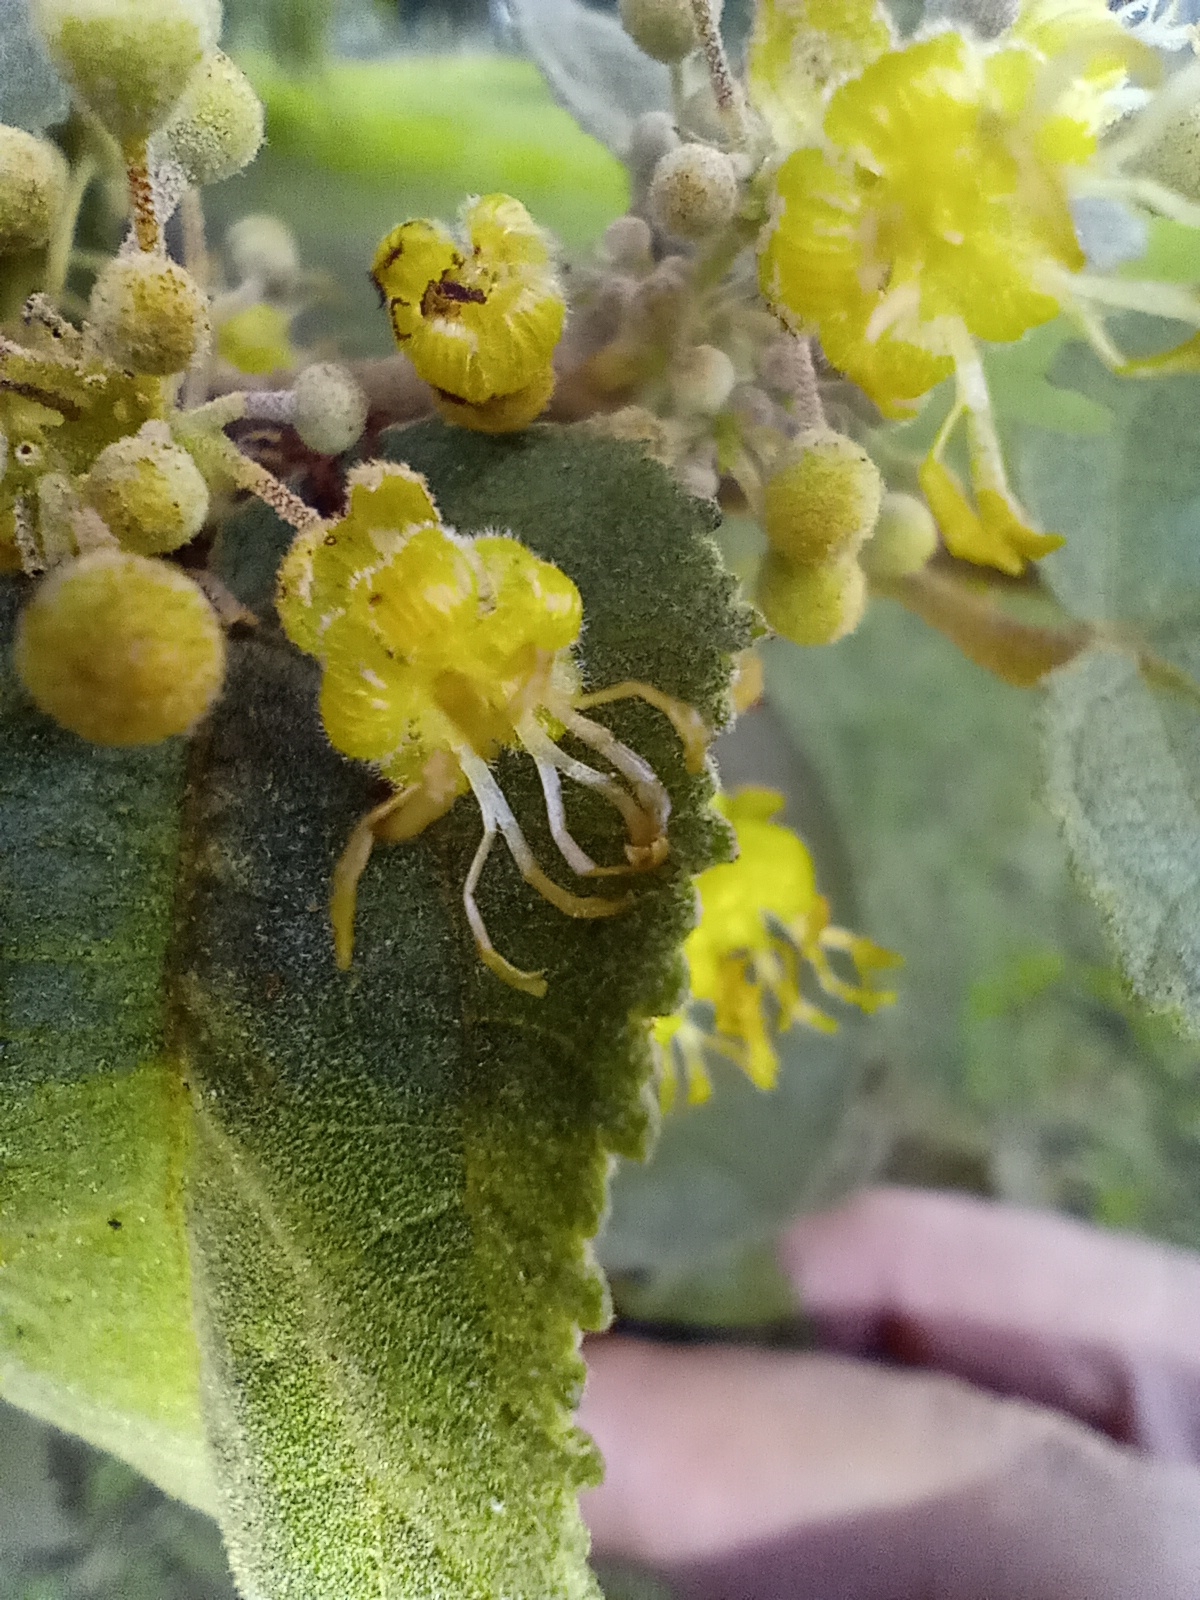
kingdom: Plantae
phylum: Tracheophyta
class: Magnoliopsida
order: Malvales
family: Malvaceae
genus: Guazuma
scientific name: Guazuma ulmifolia
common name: Bastard-cedar
